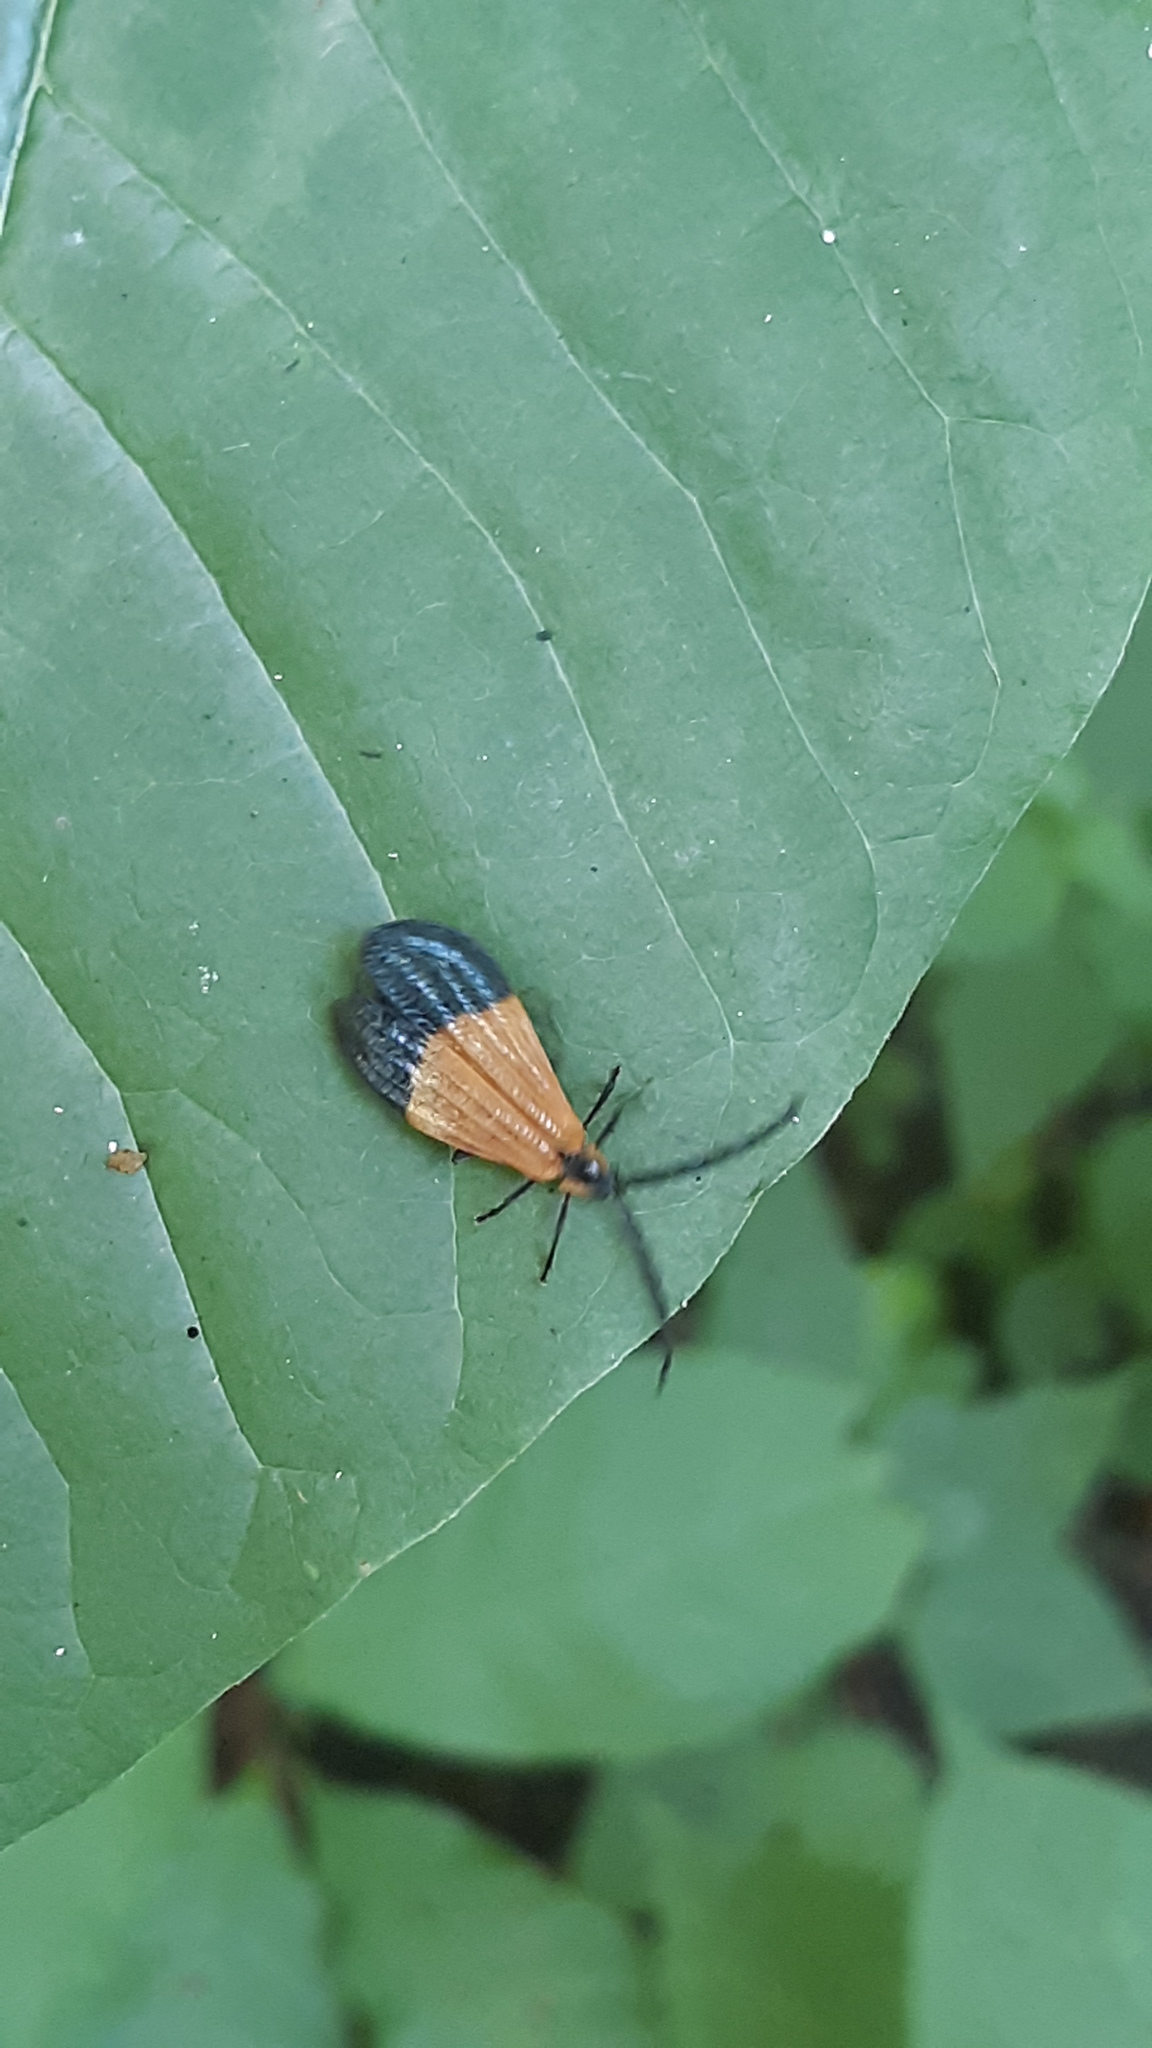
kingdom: Animalia
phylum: Arthropoda
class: Insecta
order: Coleoptera
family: Lycidae
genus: Calopteron
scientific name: Calopteron terminale
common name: End band net-winged beetle
